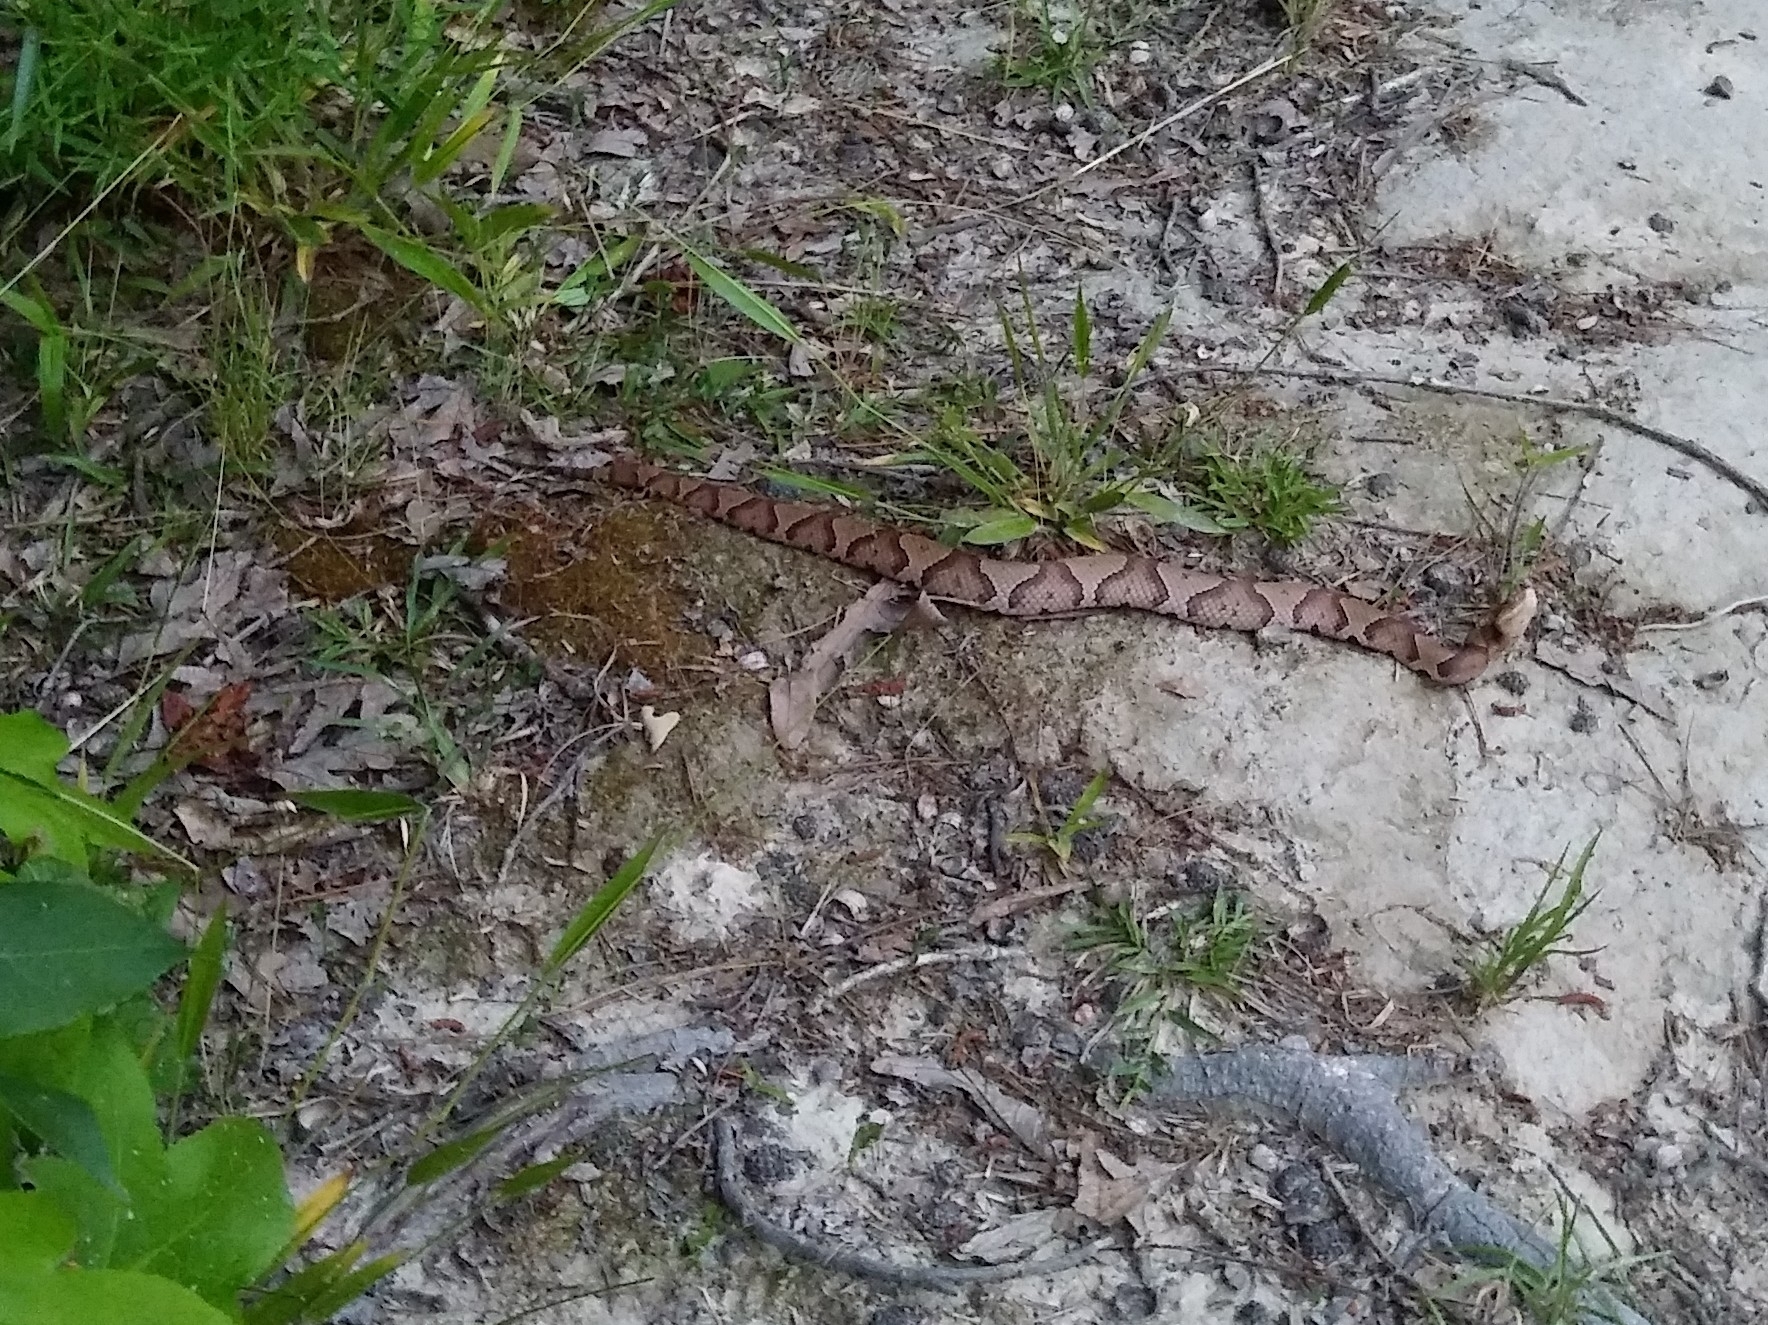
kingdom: Animalia
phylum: Chordata
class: Squamata
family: Viperidae
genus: Agkistrodon
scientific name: Agkistrodon contortrix
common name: Northern copperhead
